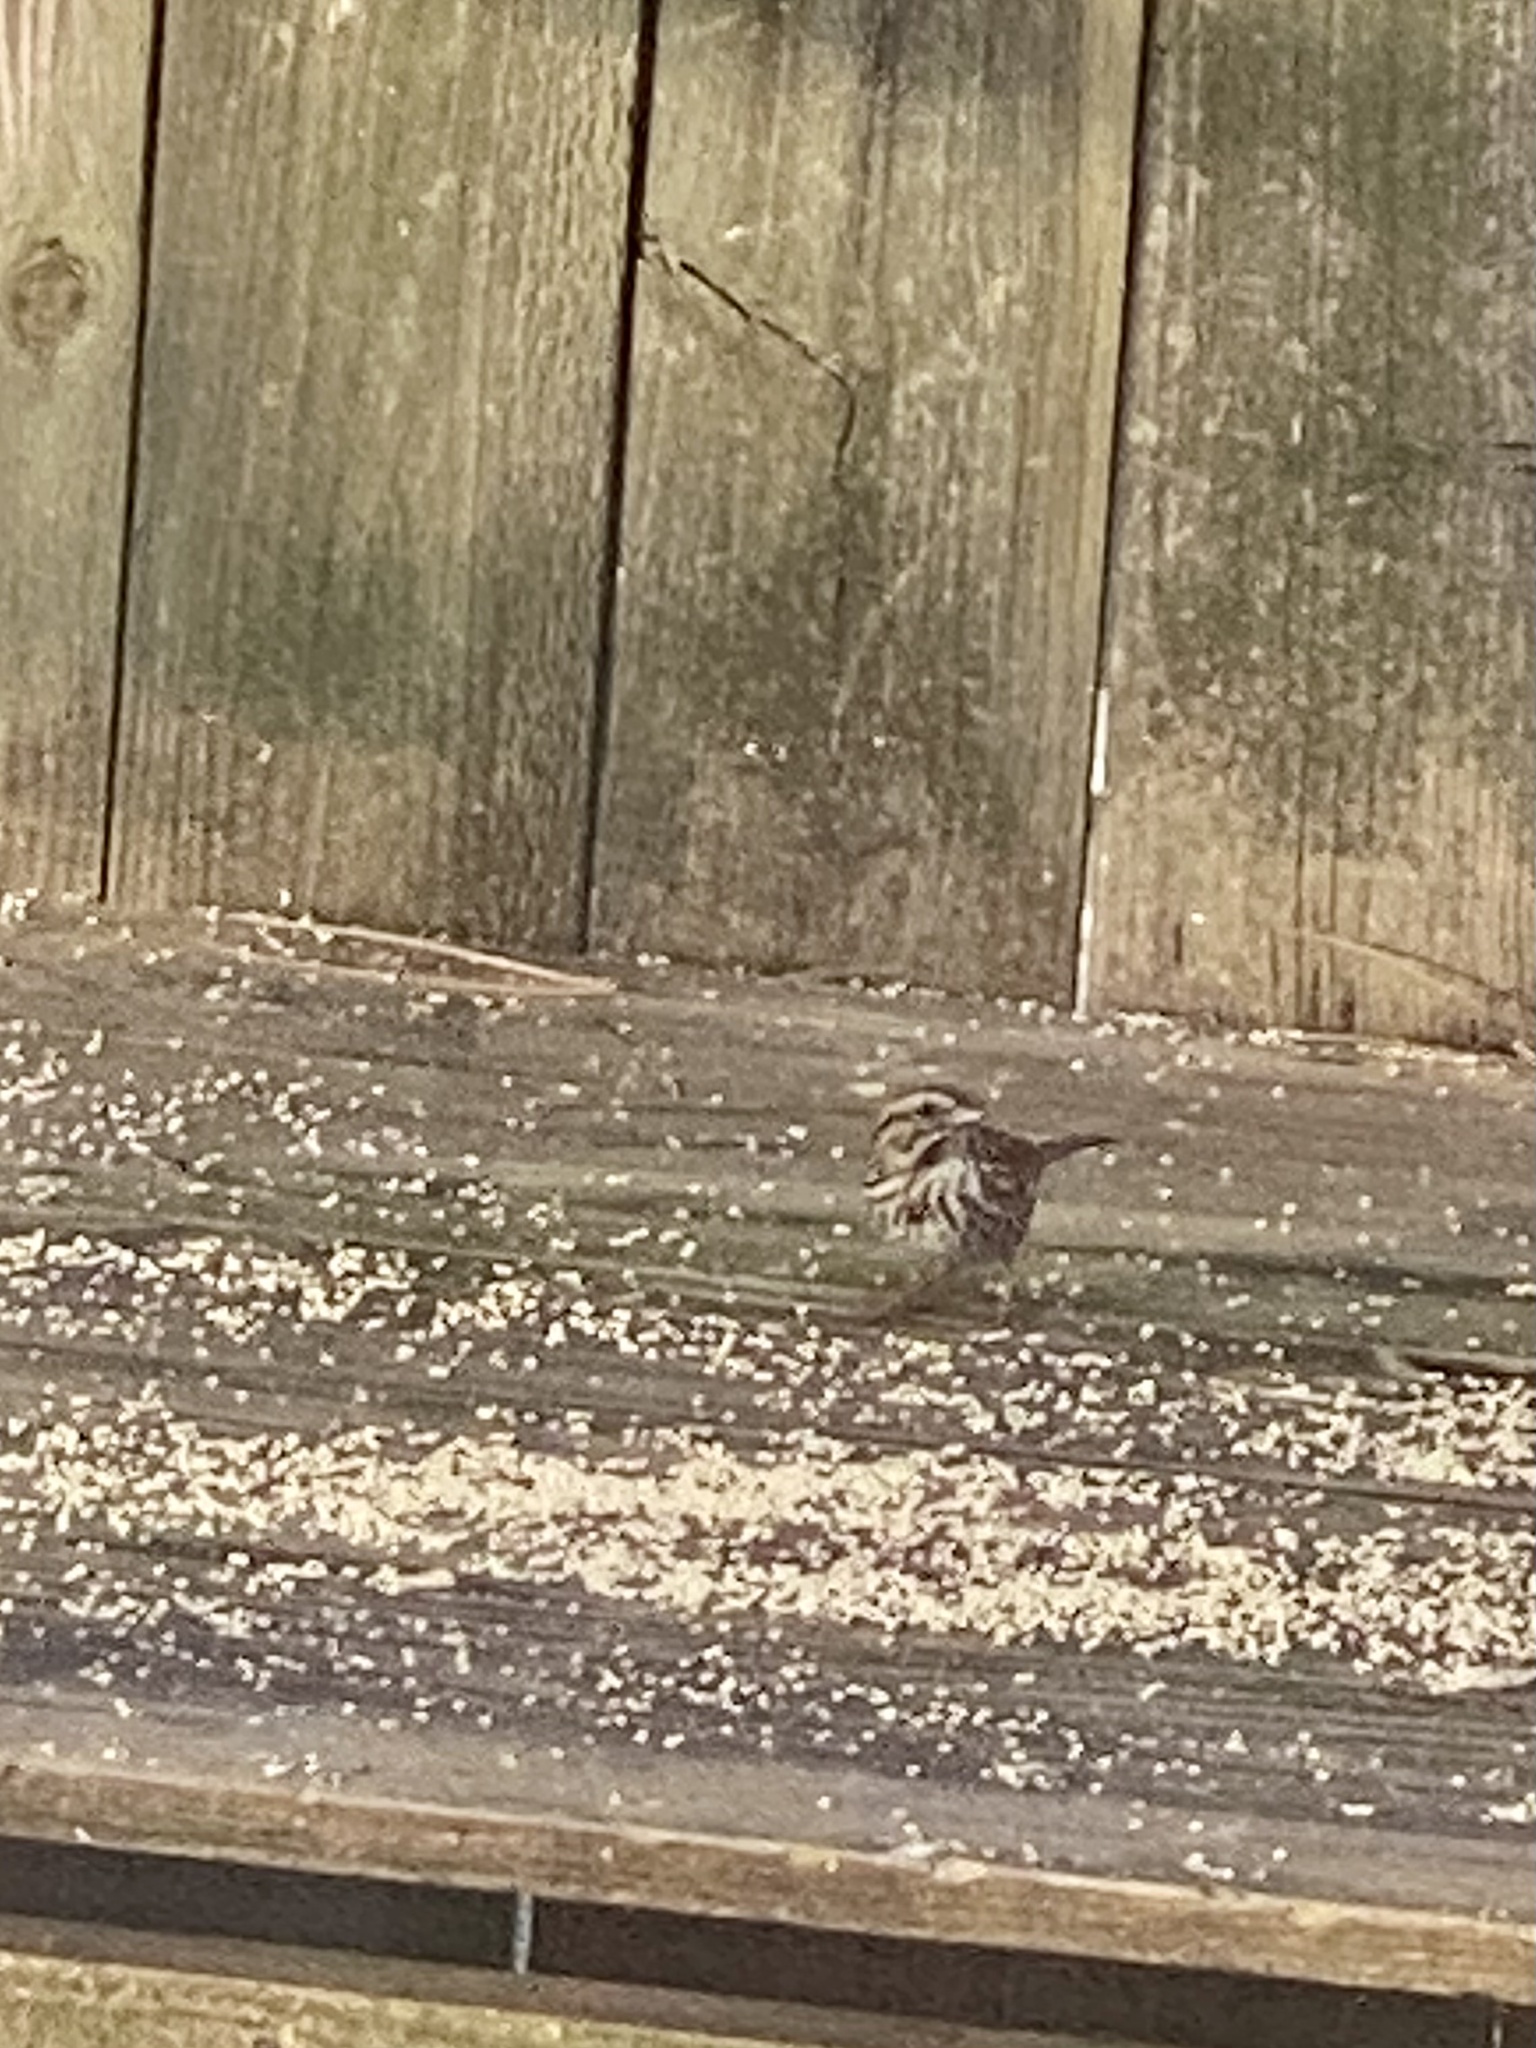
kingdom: Animalia
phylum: Chordata
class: Aves
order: Passeriformes
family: Passerellidae
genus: Melospiza
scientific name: Melospiza melodia
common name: Song sparrow
